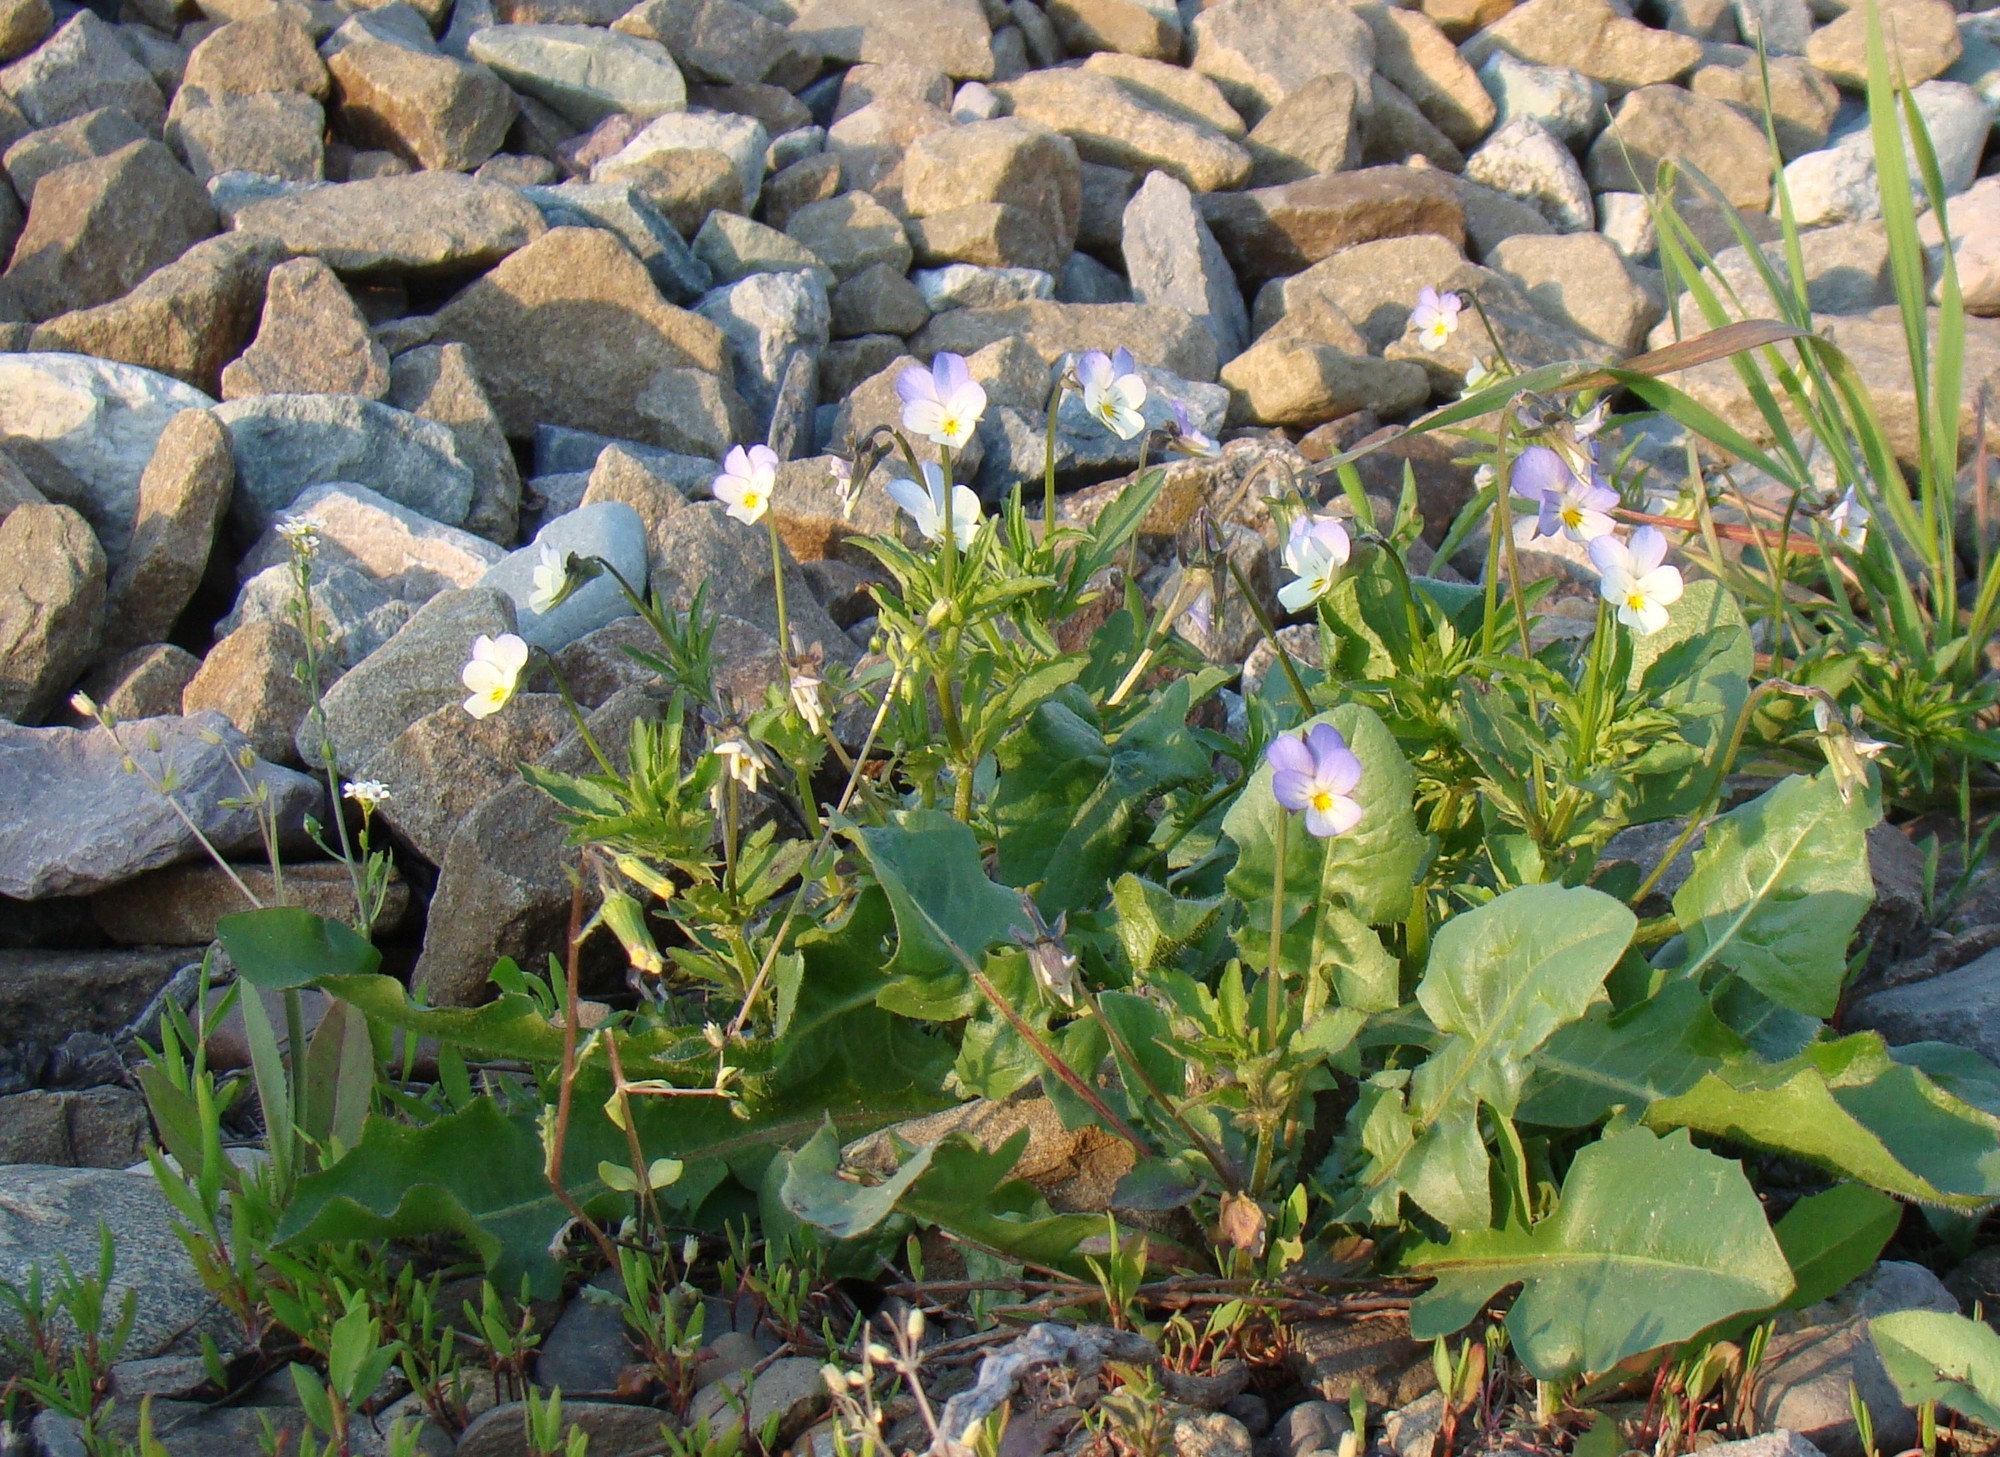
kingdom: Plantae
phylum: Tracheophyta
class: Magnoliopsida
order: Malpighiales
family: Violaceae
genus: Viola
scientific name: Viola arvensis
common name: Field pansy
